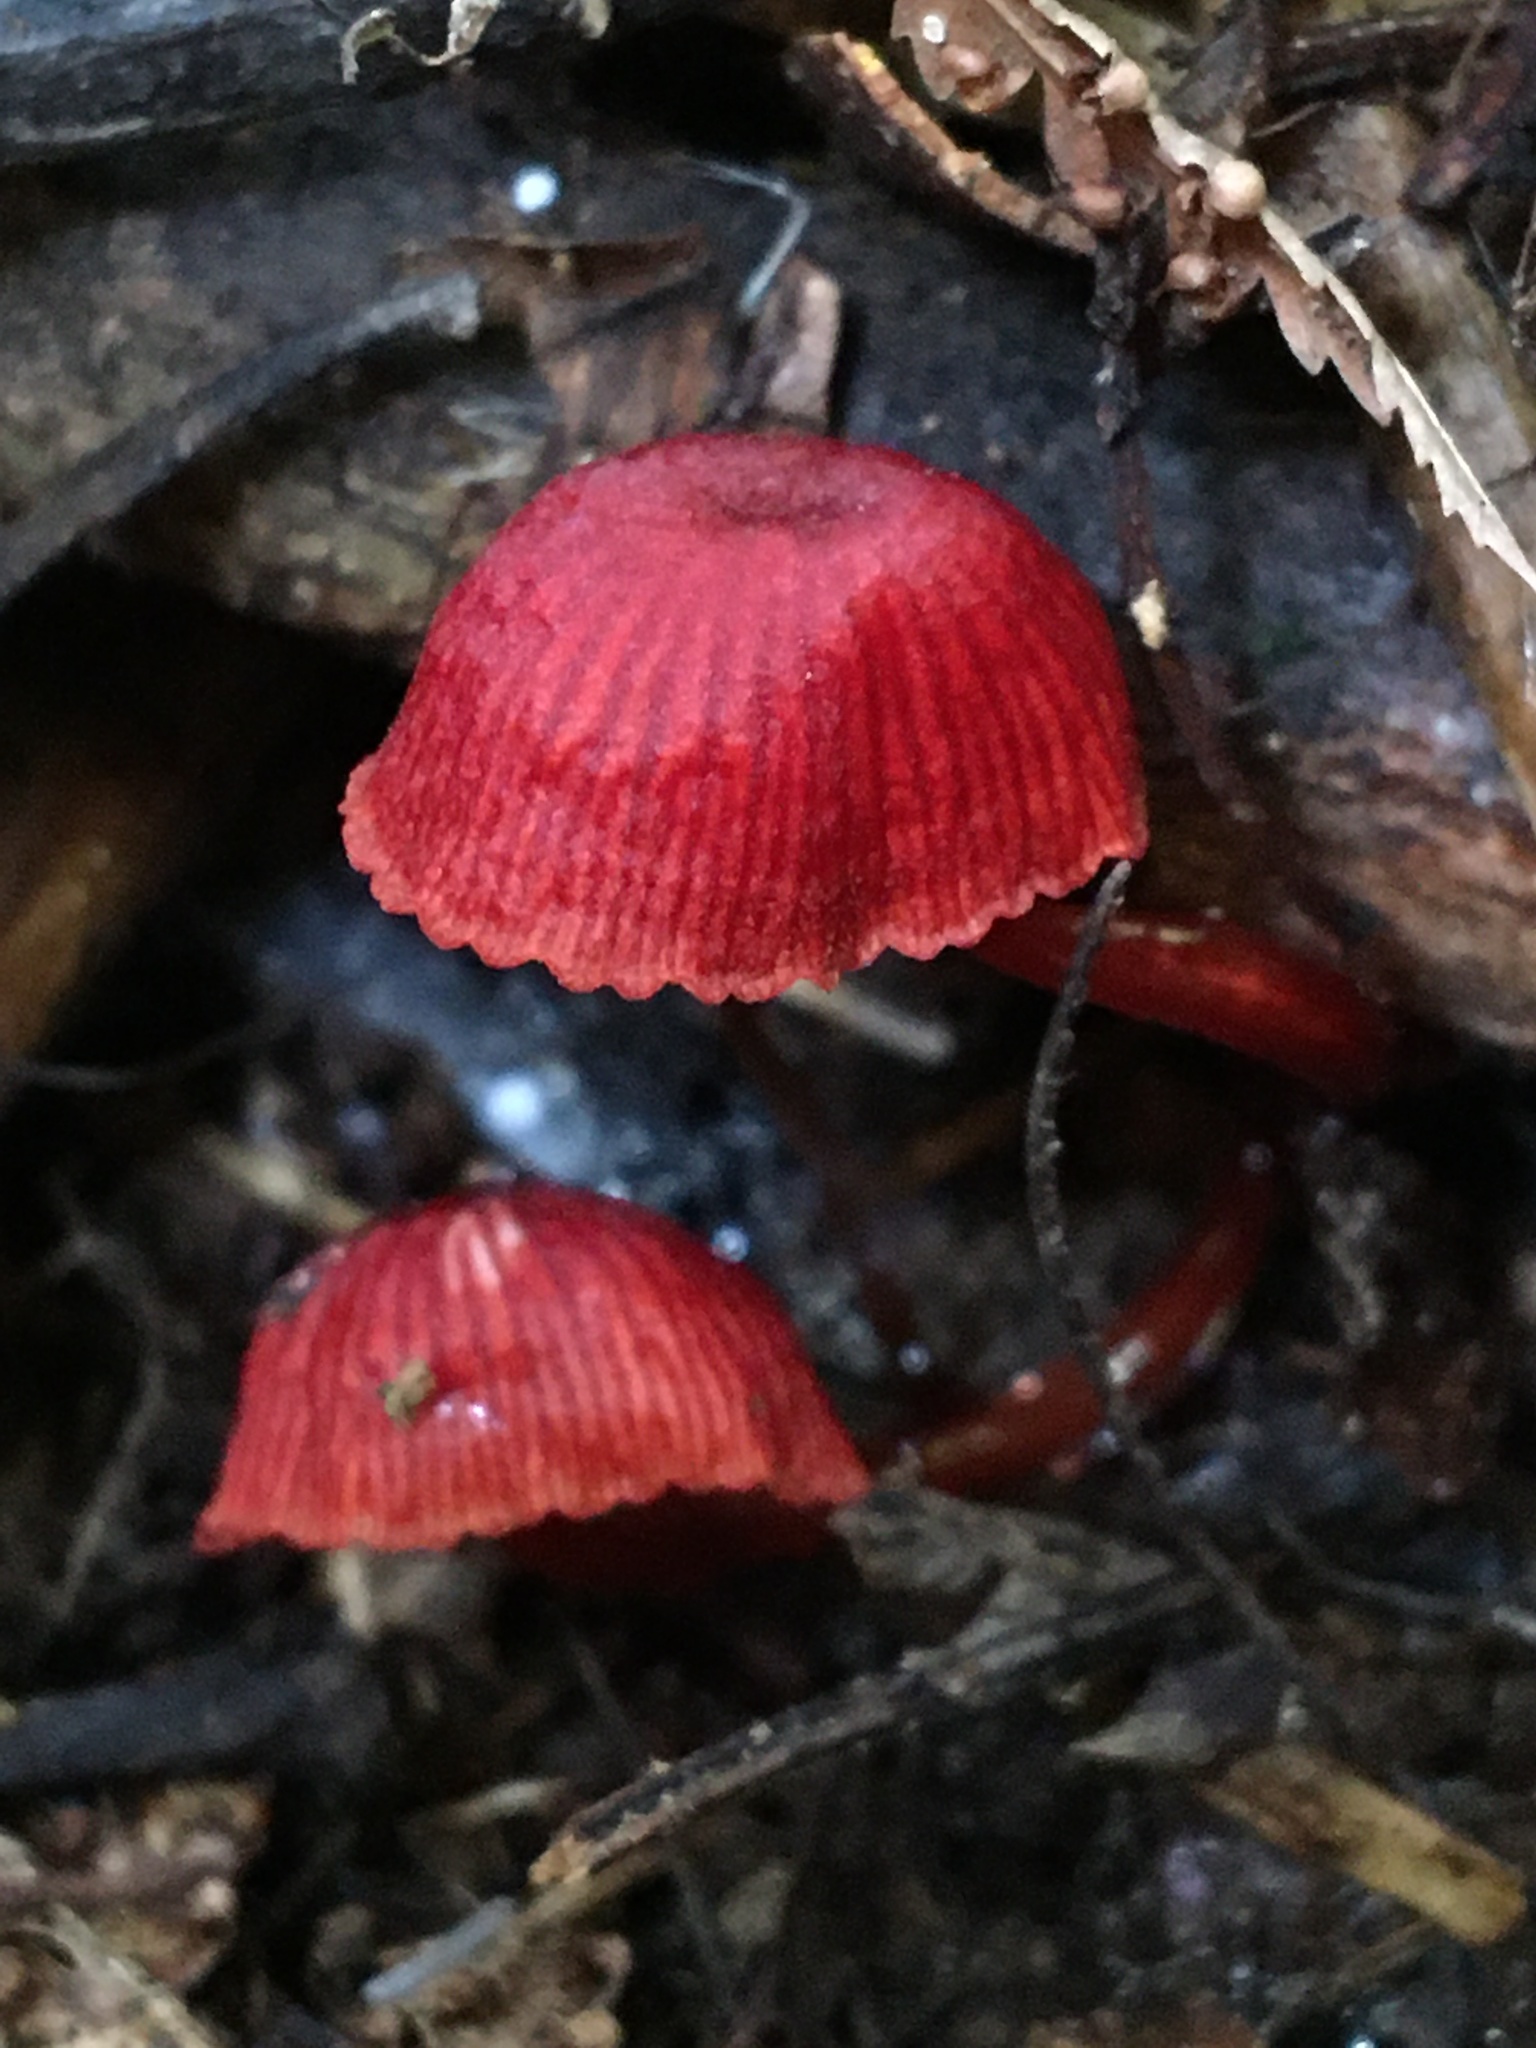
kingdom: Fungi
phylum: Basidiomycota
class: Agaricomycetes
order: Agaricales
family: Mycenaceae
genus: Cruentomycena
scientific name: Cruentomycena viscidocruenta
